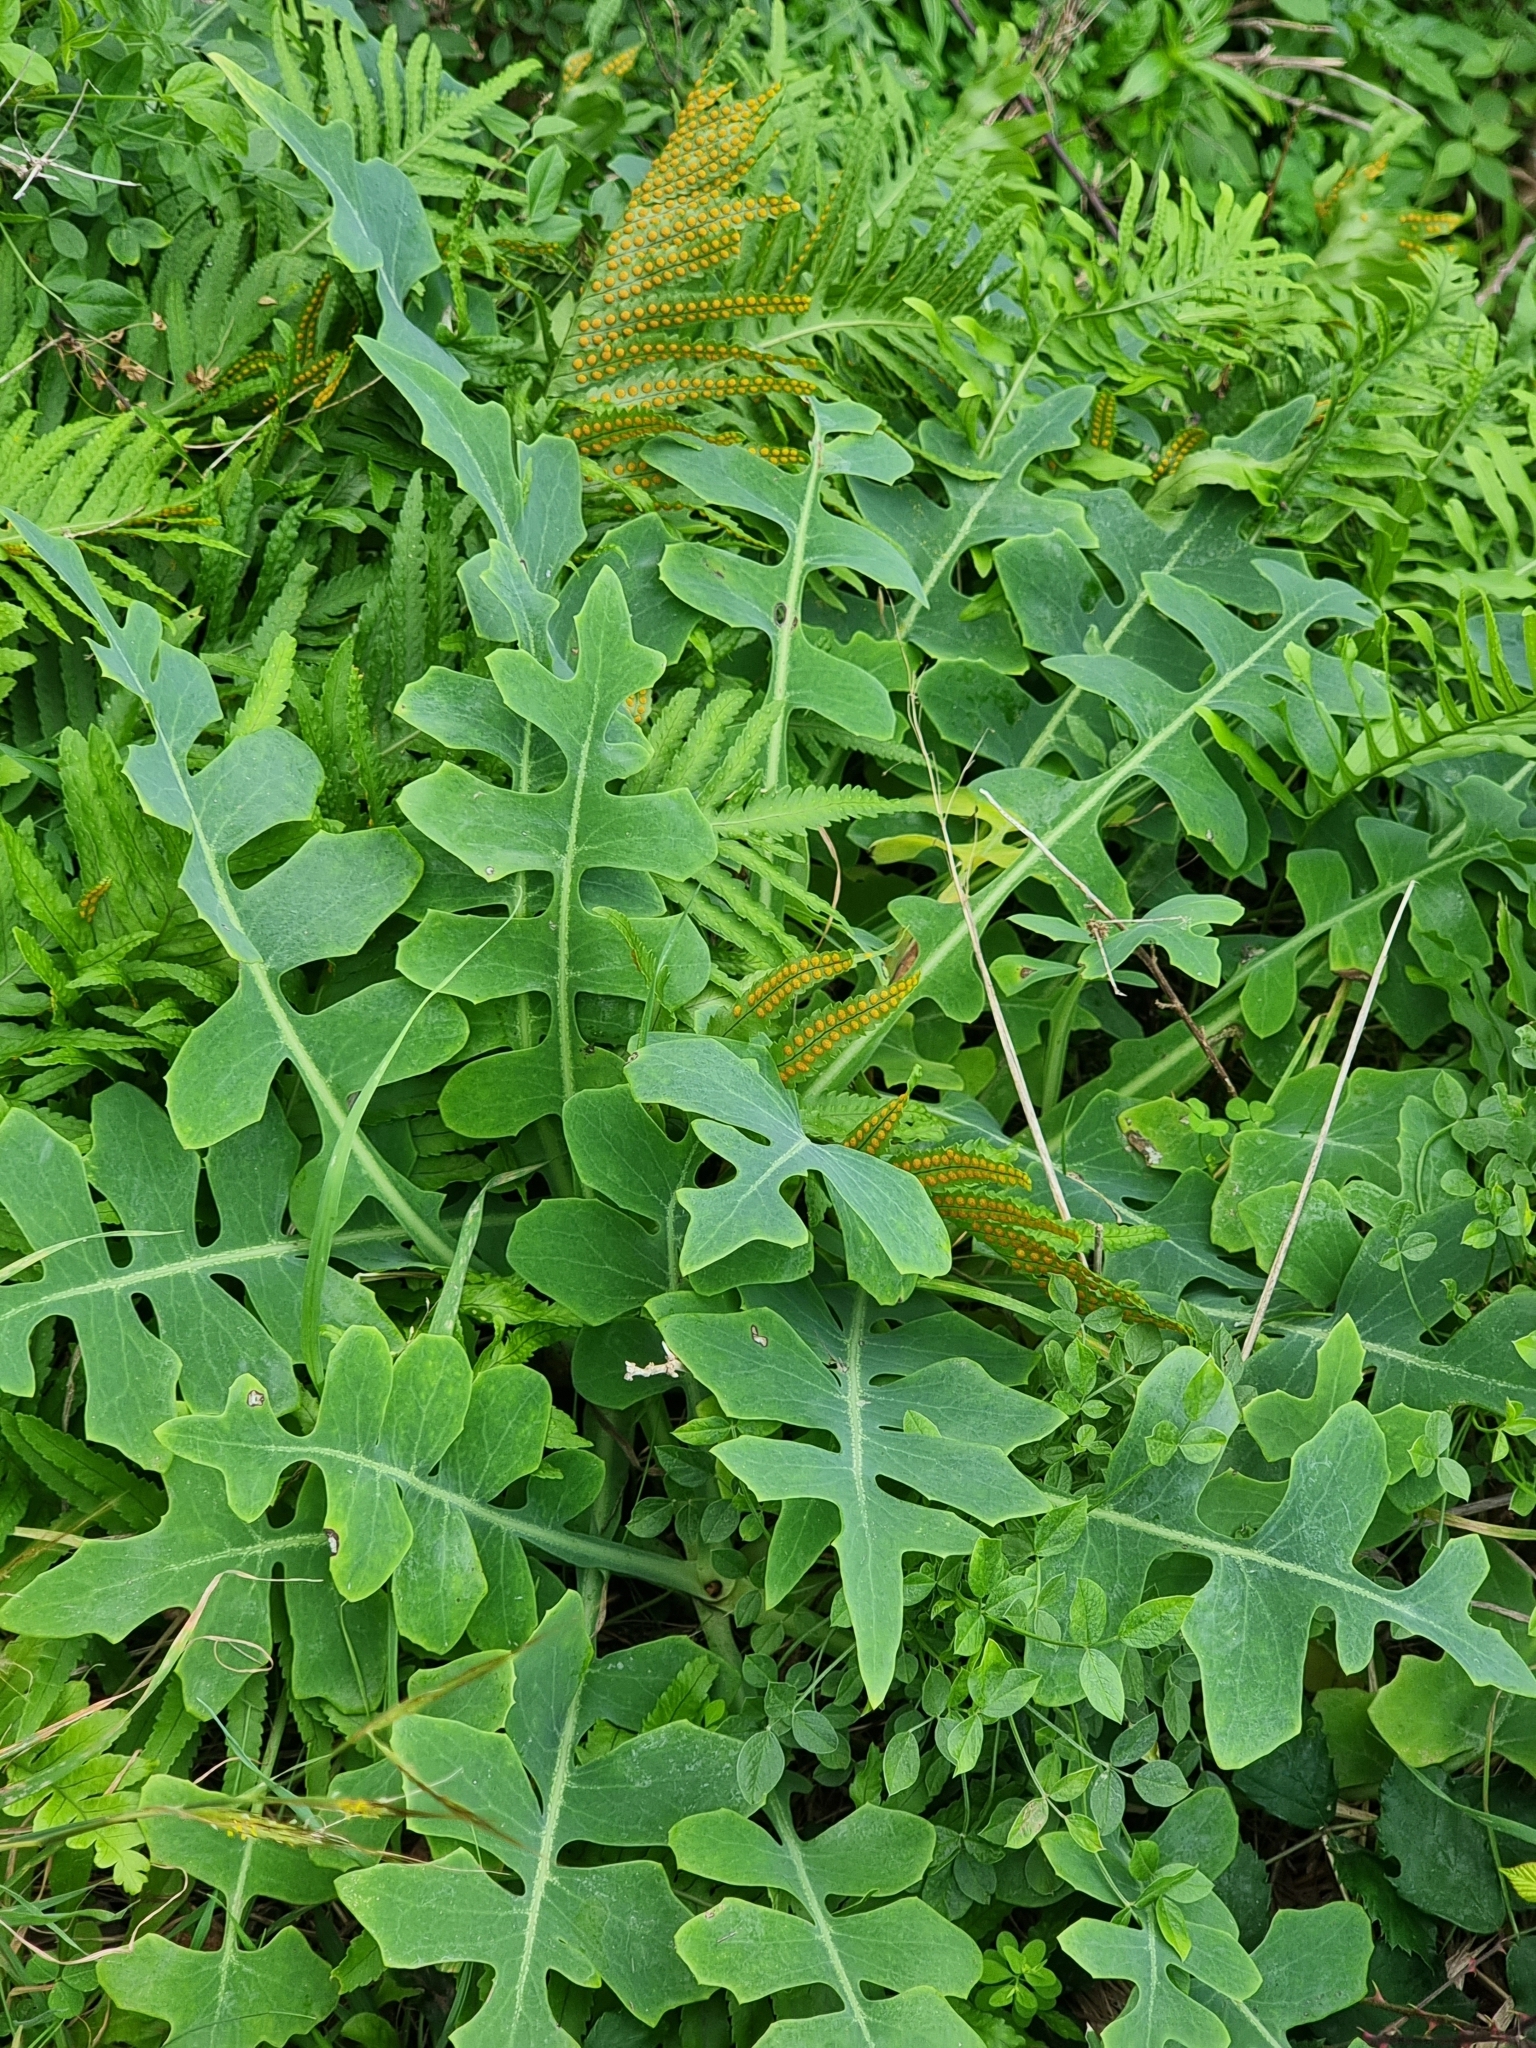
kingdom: Plantae
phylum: Tracheophyta
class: Magnoliopsida
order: Asterales
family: Asteraceae
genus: Sonchus
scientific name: Sonchus latifolius
